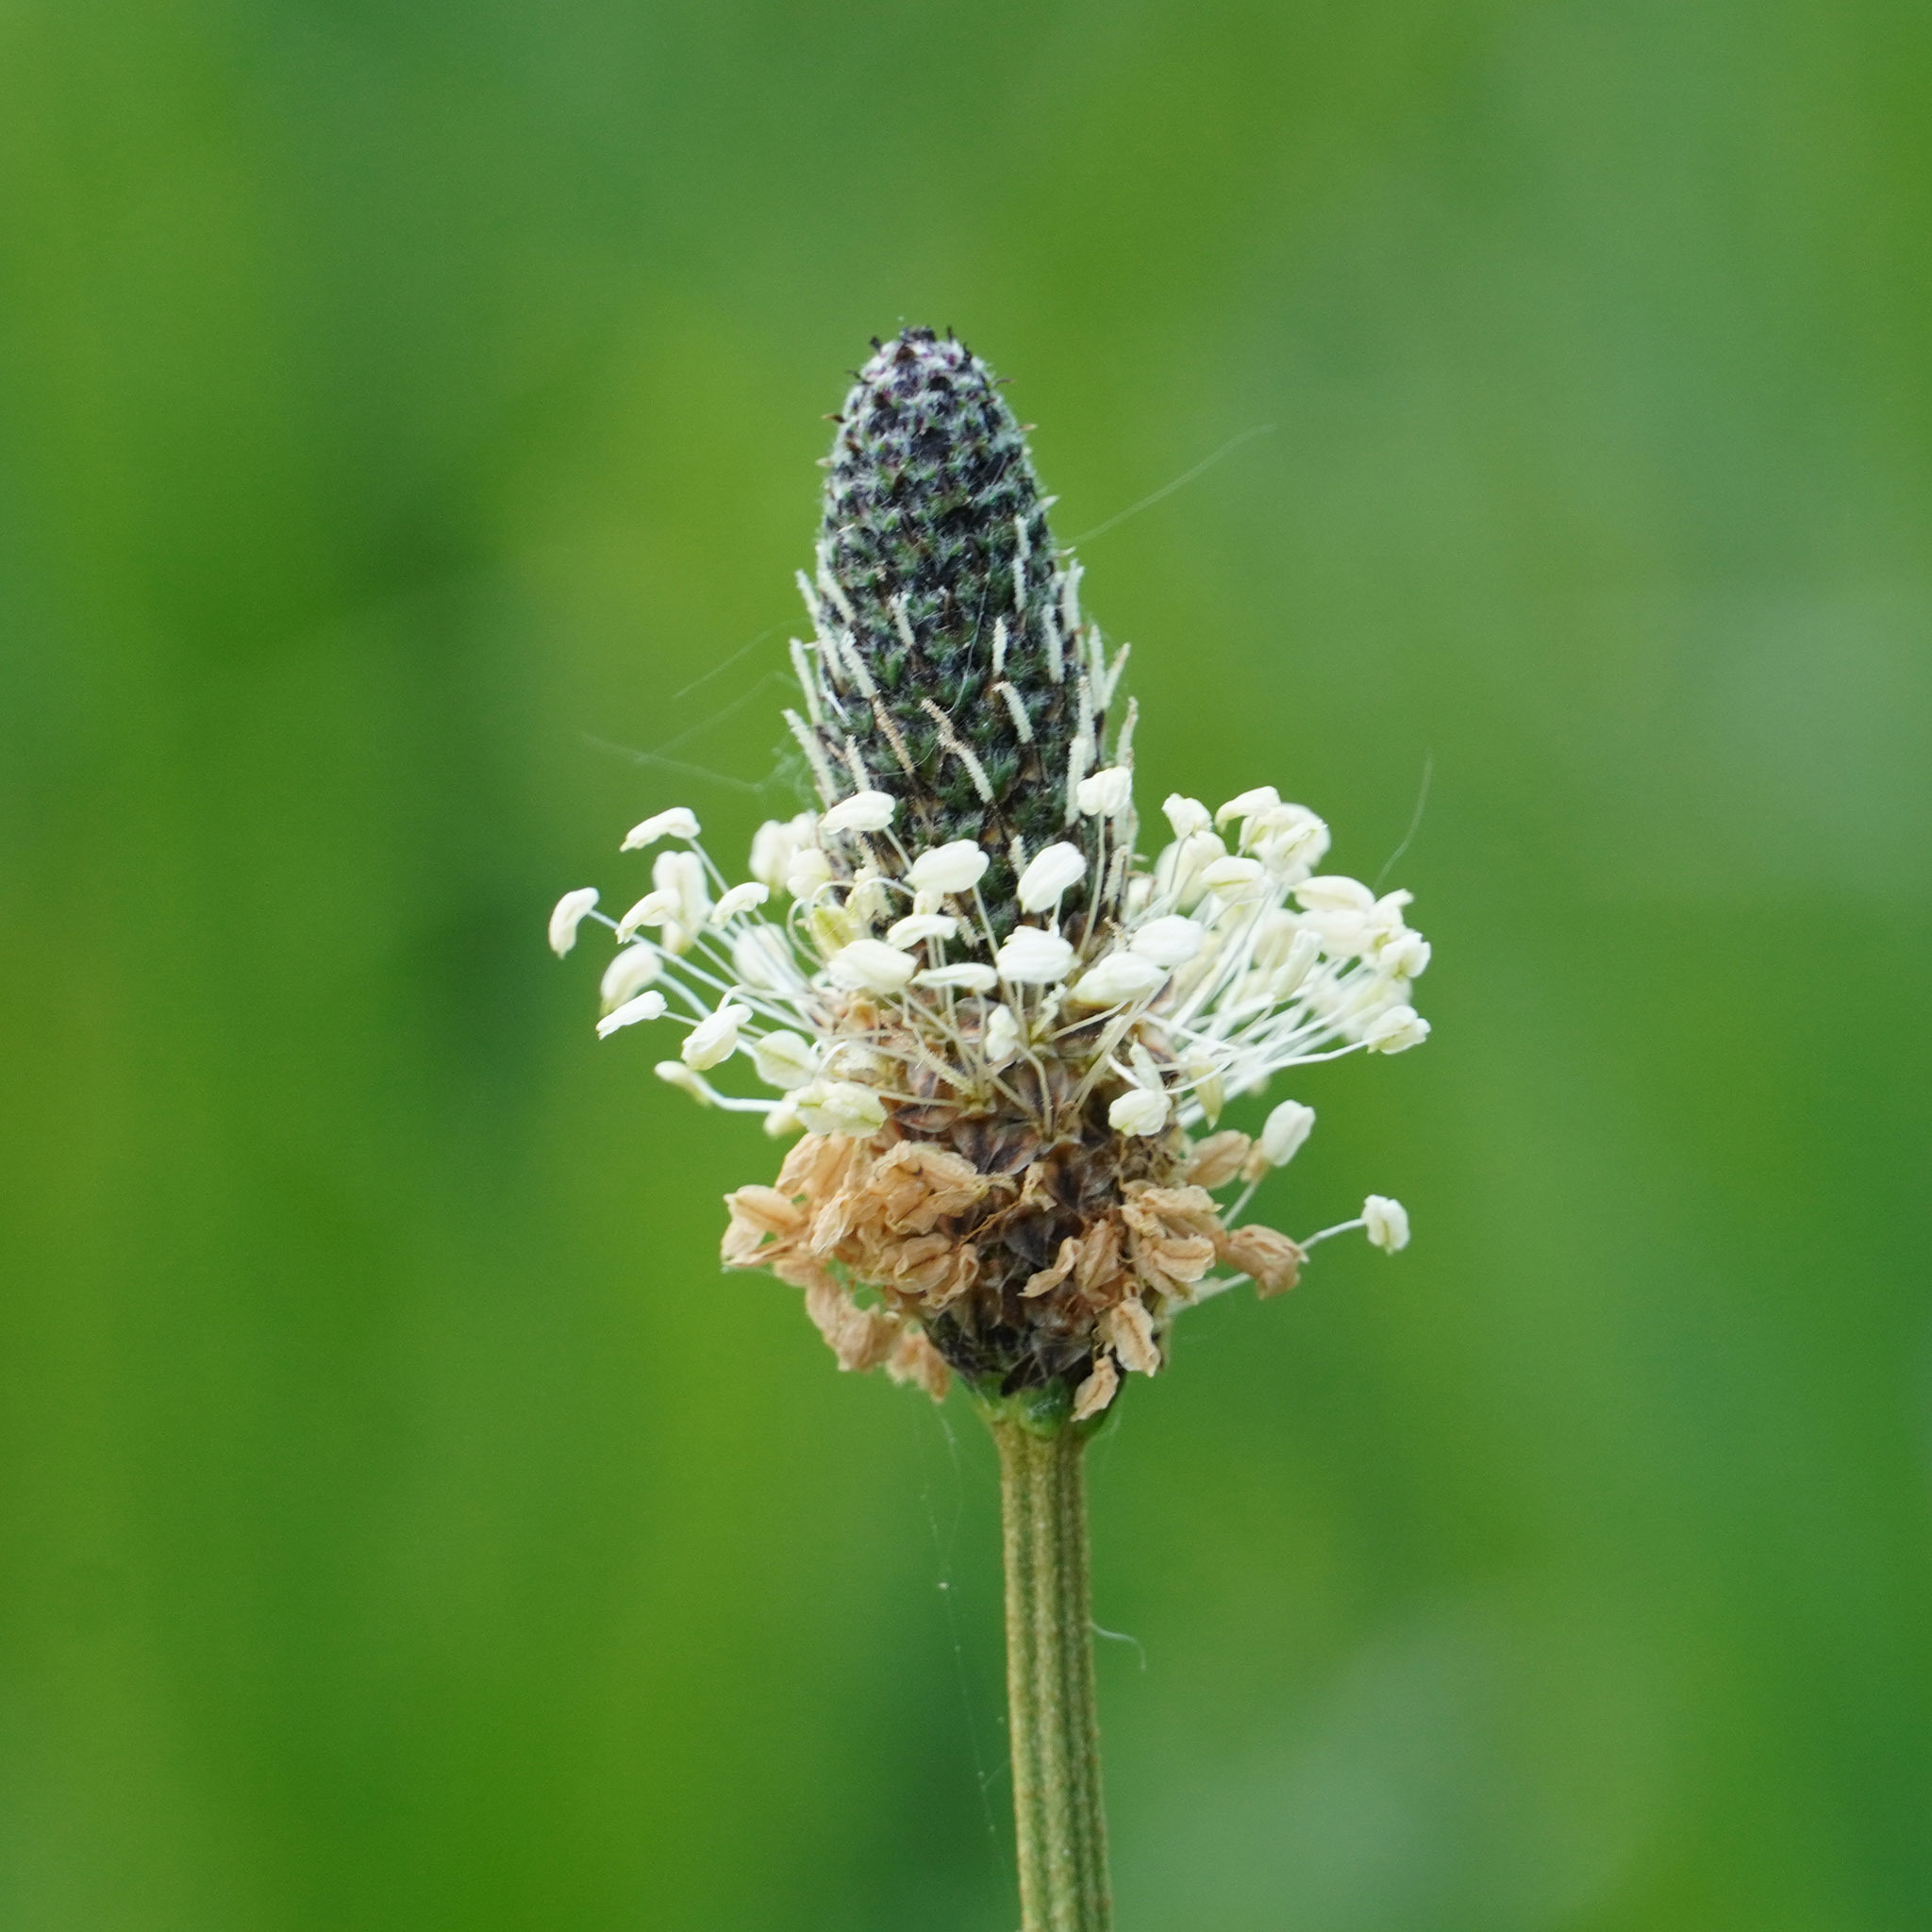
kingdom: Plantae
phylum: Tracheophyta
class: Magnoliopsida
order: Lamiales
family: Plantaginaceae
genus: Plantago
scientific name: Plantago lanceolata
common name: Ribwort plantain
